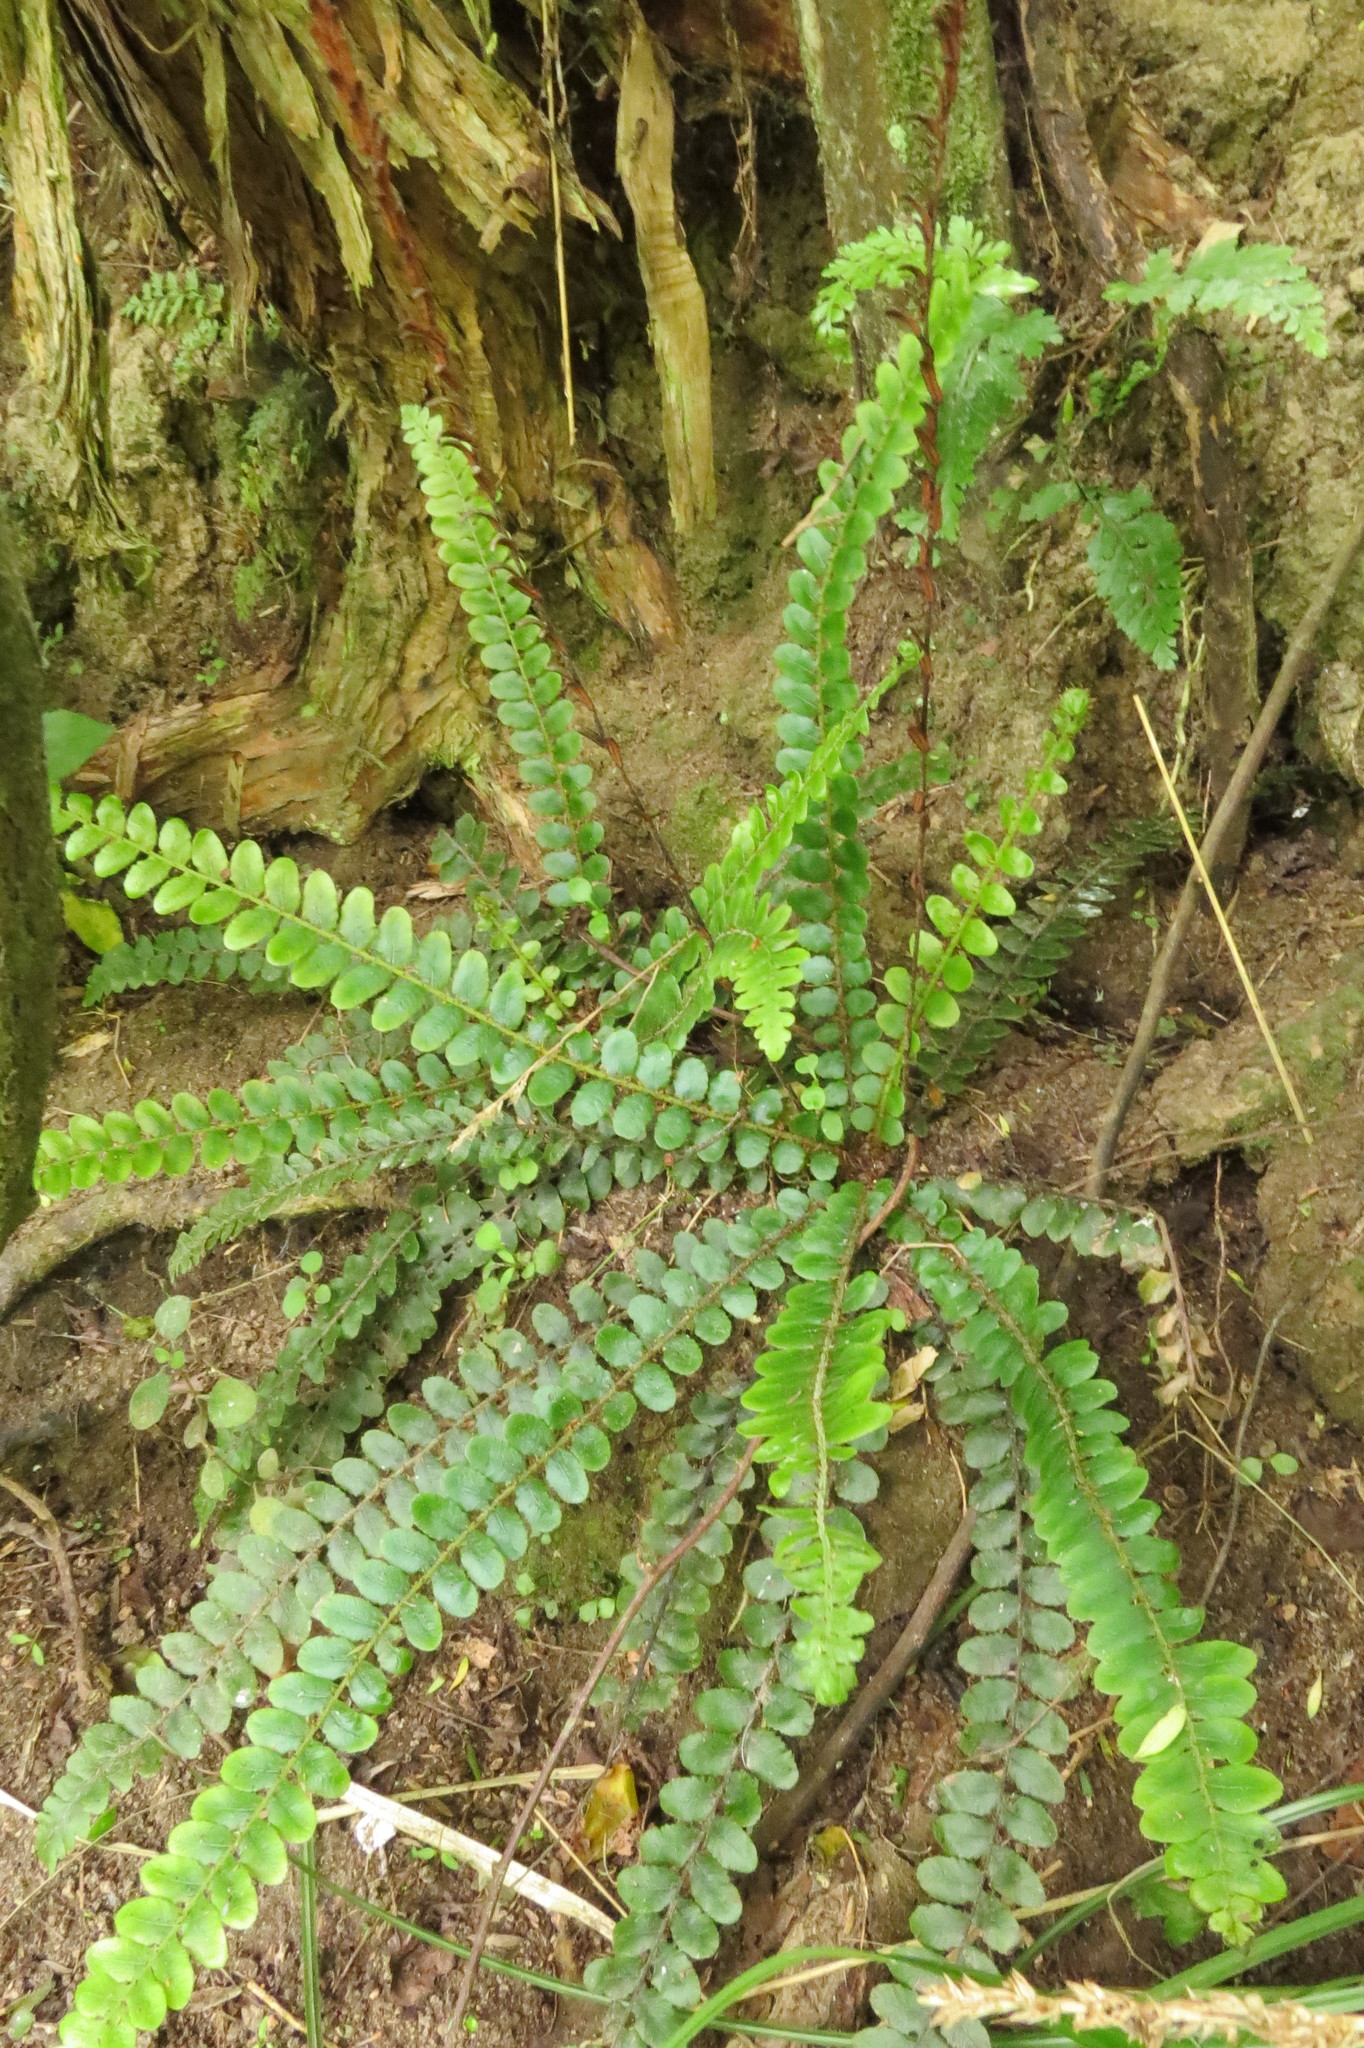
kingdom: Plantae
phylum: Tracheophyta
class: Polypodiopsida
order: Polypodiales
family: Blechnaceae
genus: Cranfillia
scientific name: Cranfillia fluviatilis
